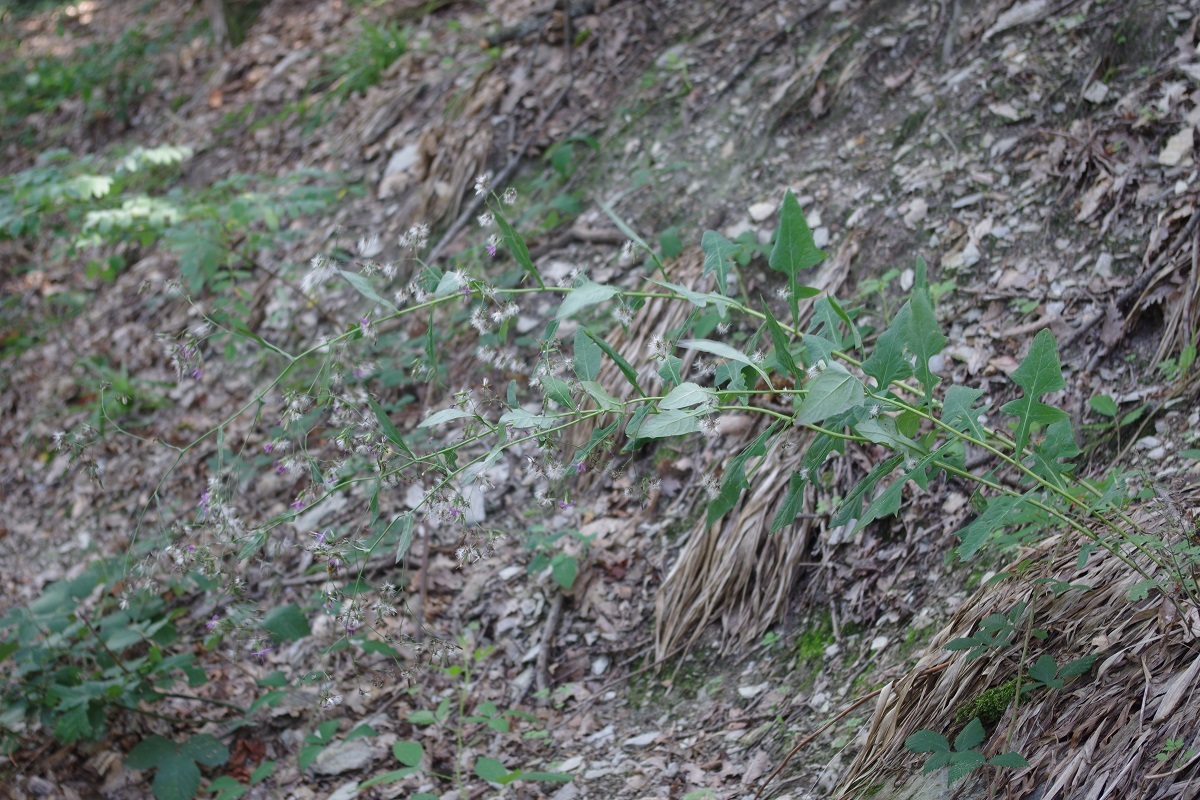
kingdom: Plantae
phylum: Tracheophyta
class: Magnoliopsida
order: Asterales
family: Asteraceae
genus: Prenanthes
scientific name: Prenanthes purpurea
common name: Purple lettuce
